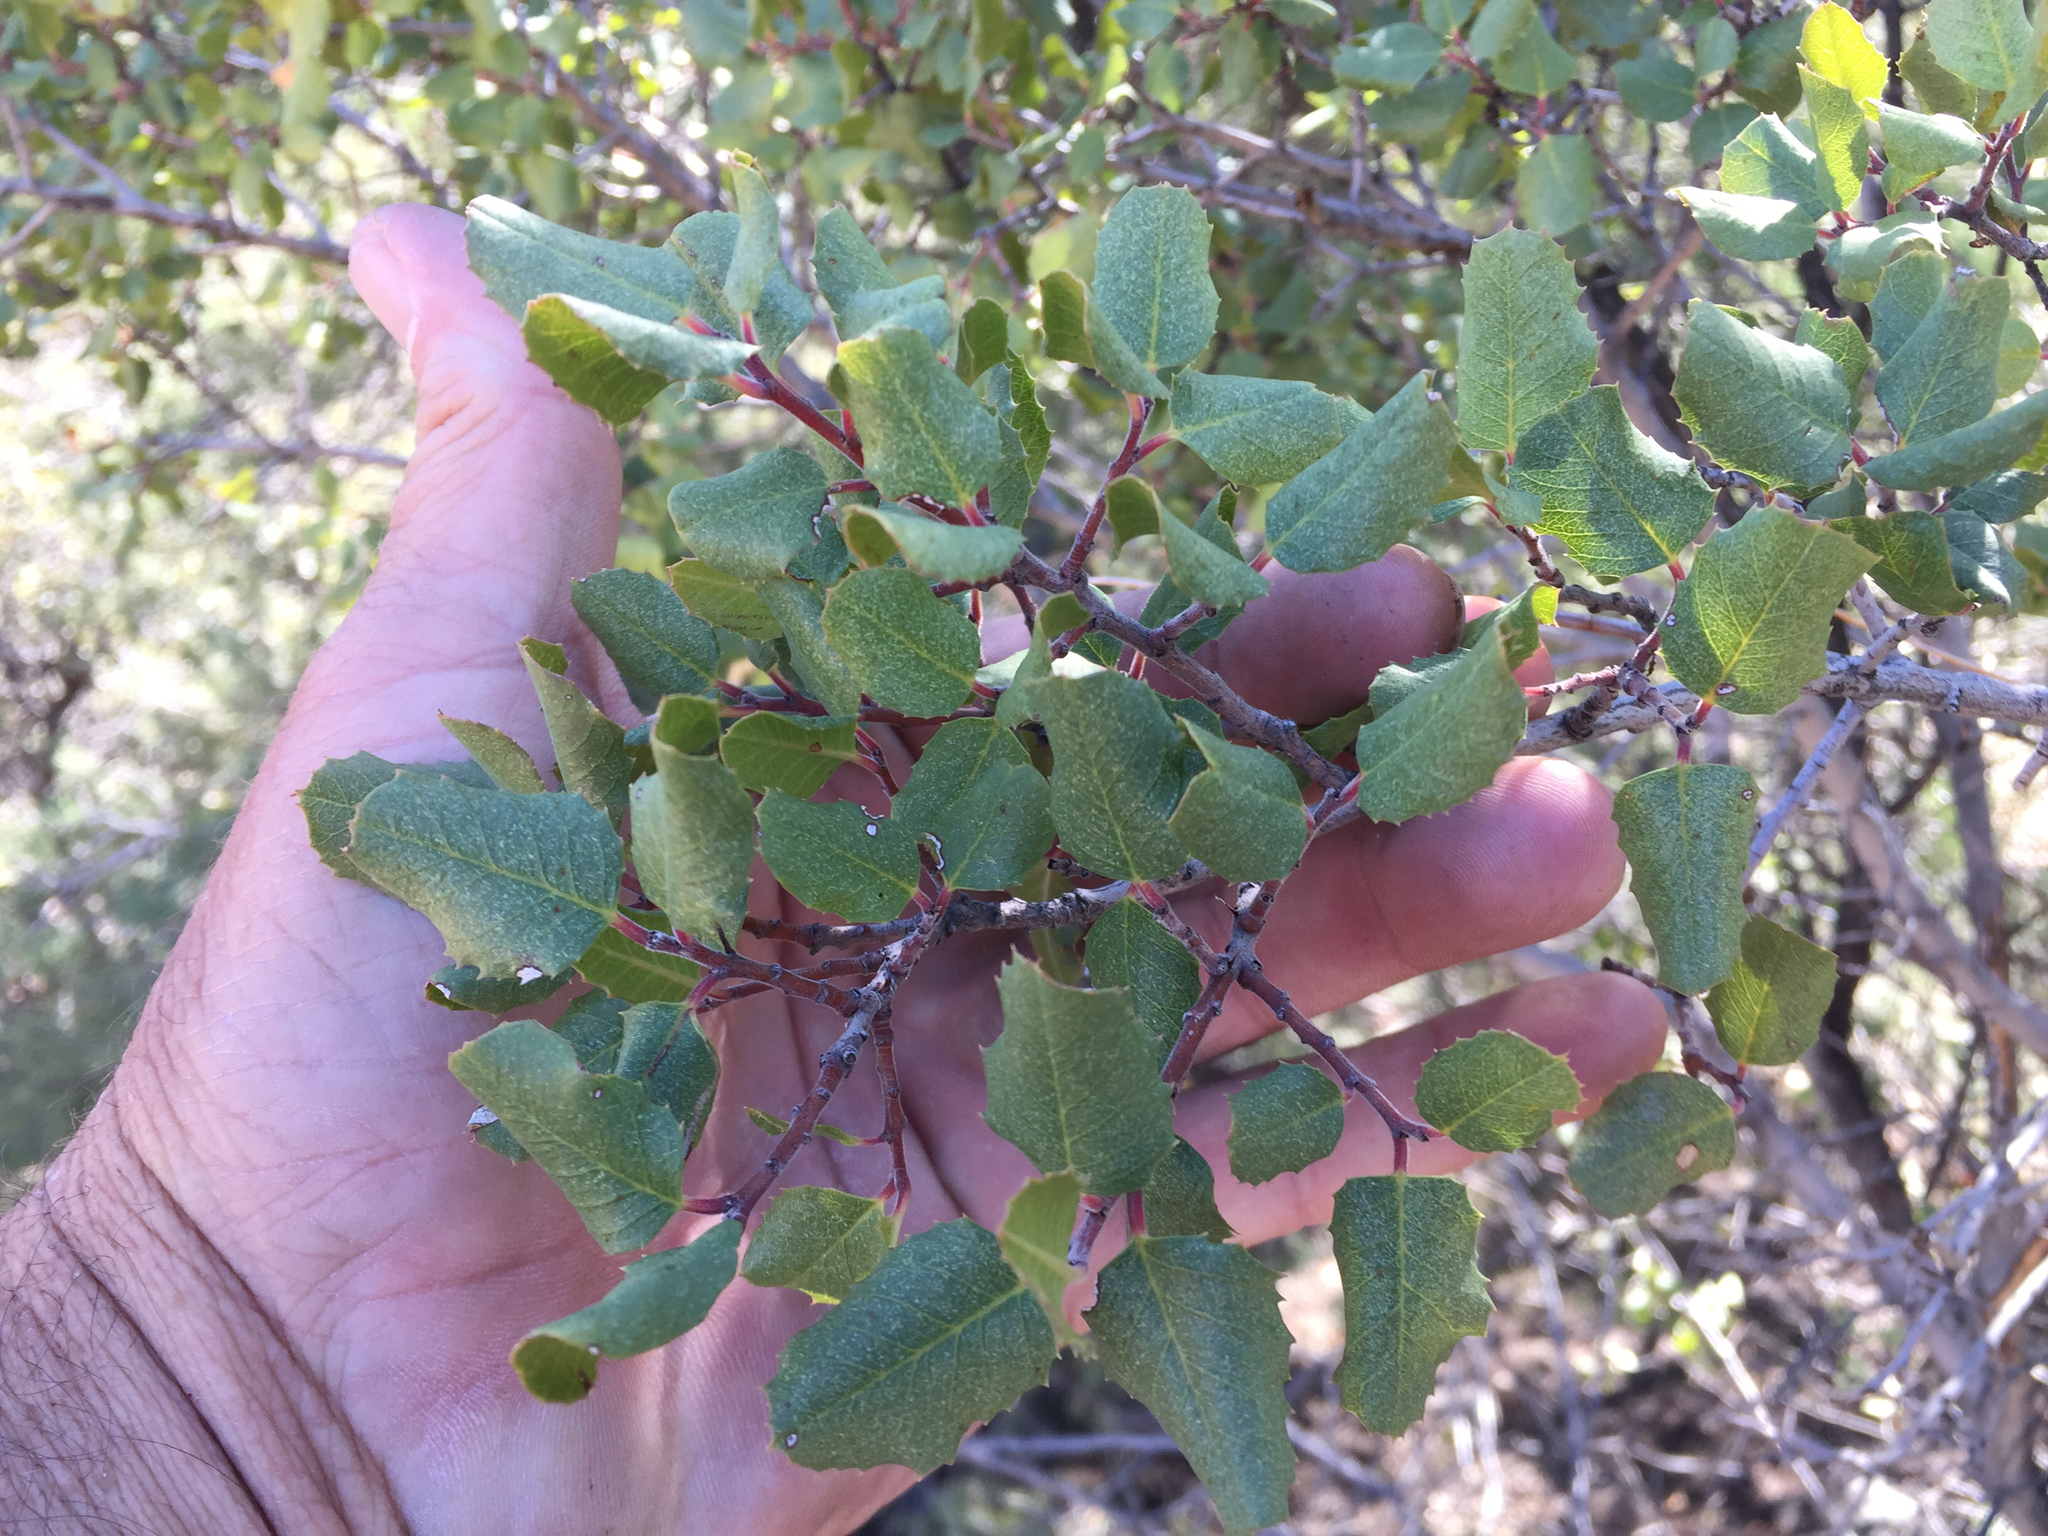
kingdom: Plantae
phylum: Tracheophyta
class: Magnoliopsida
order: Rosales
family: Rhamnaceae
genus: Endotropis
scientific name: Endotropis crocea
